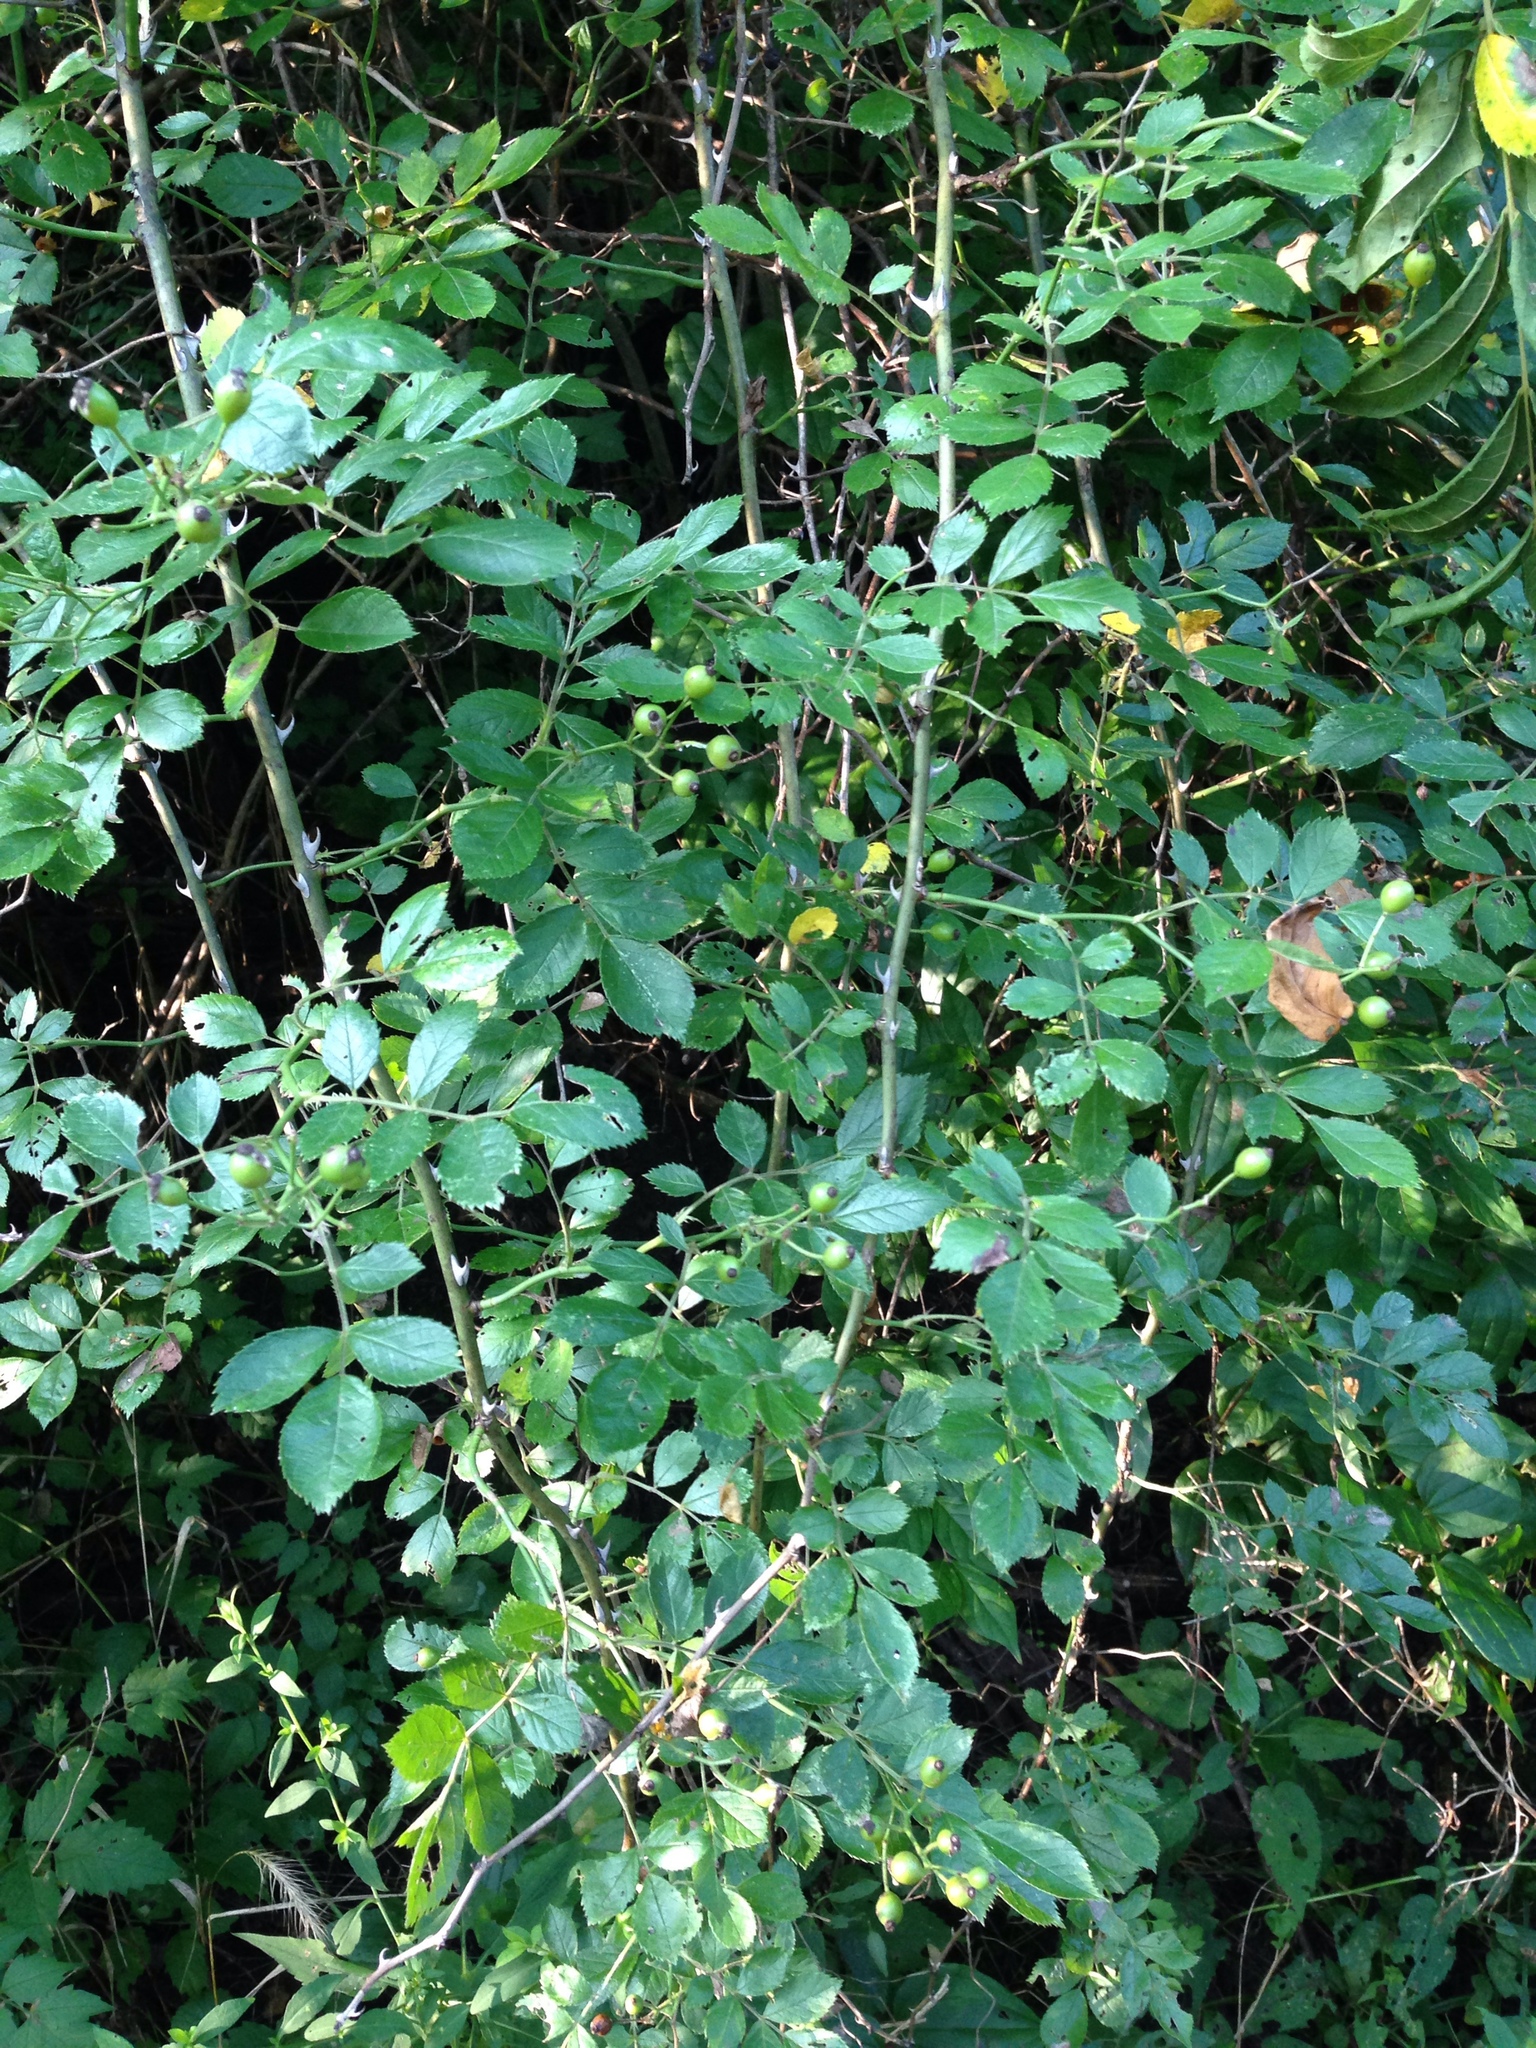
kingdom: Plantae
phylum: Tracheophyta
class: Magnoliopsida
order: Rosales
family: Rosaceae
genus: Rosa
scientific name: Rosa multiflora
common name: Multiflora rose
